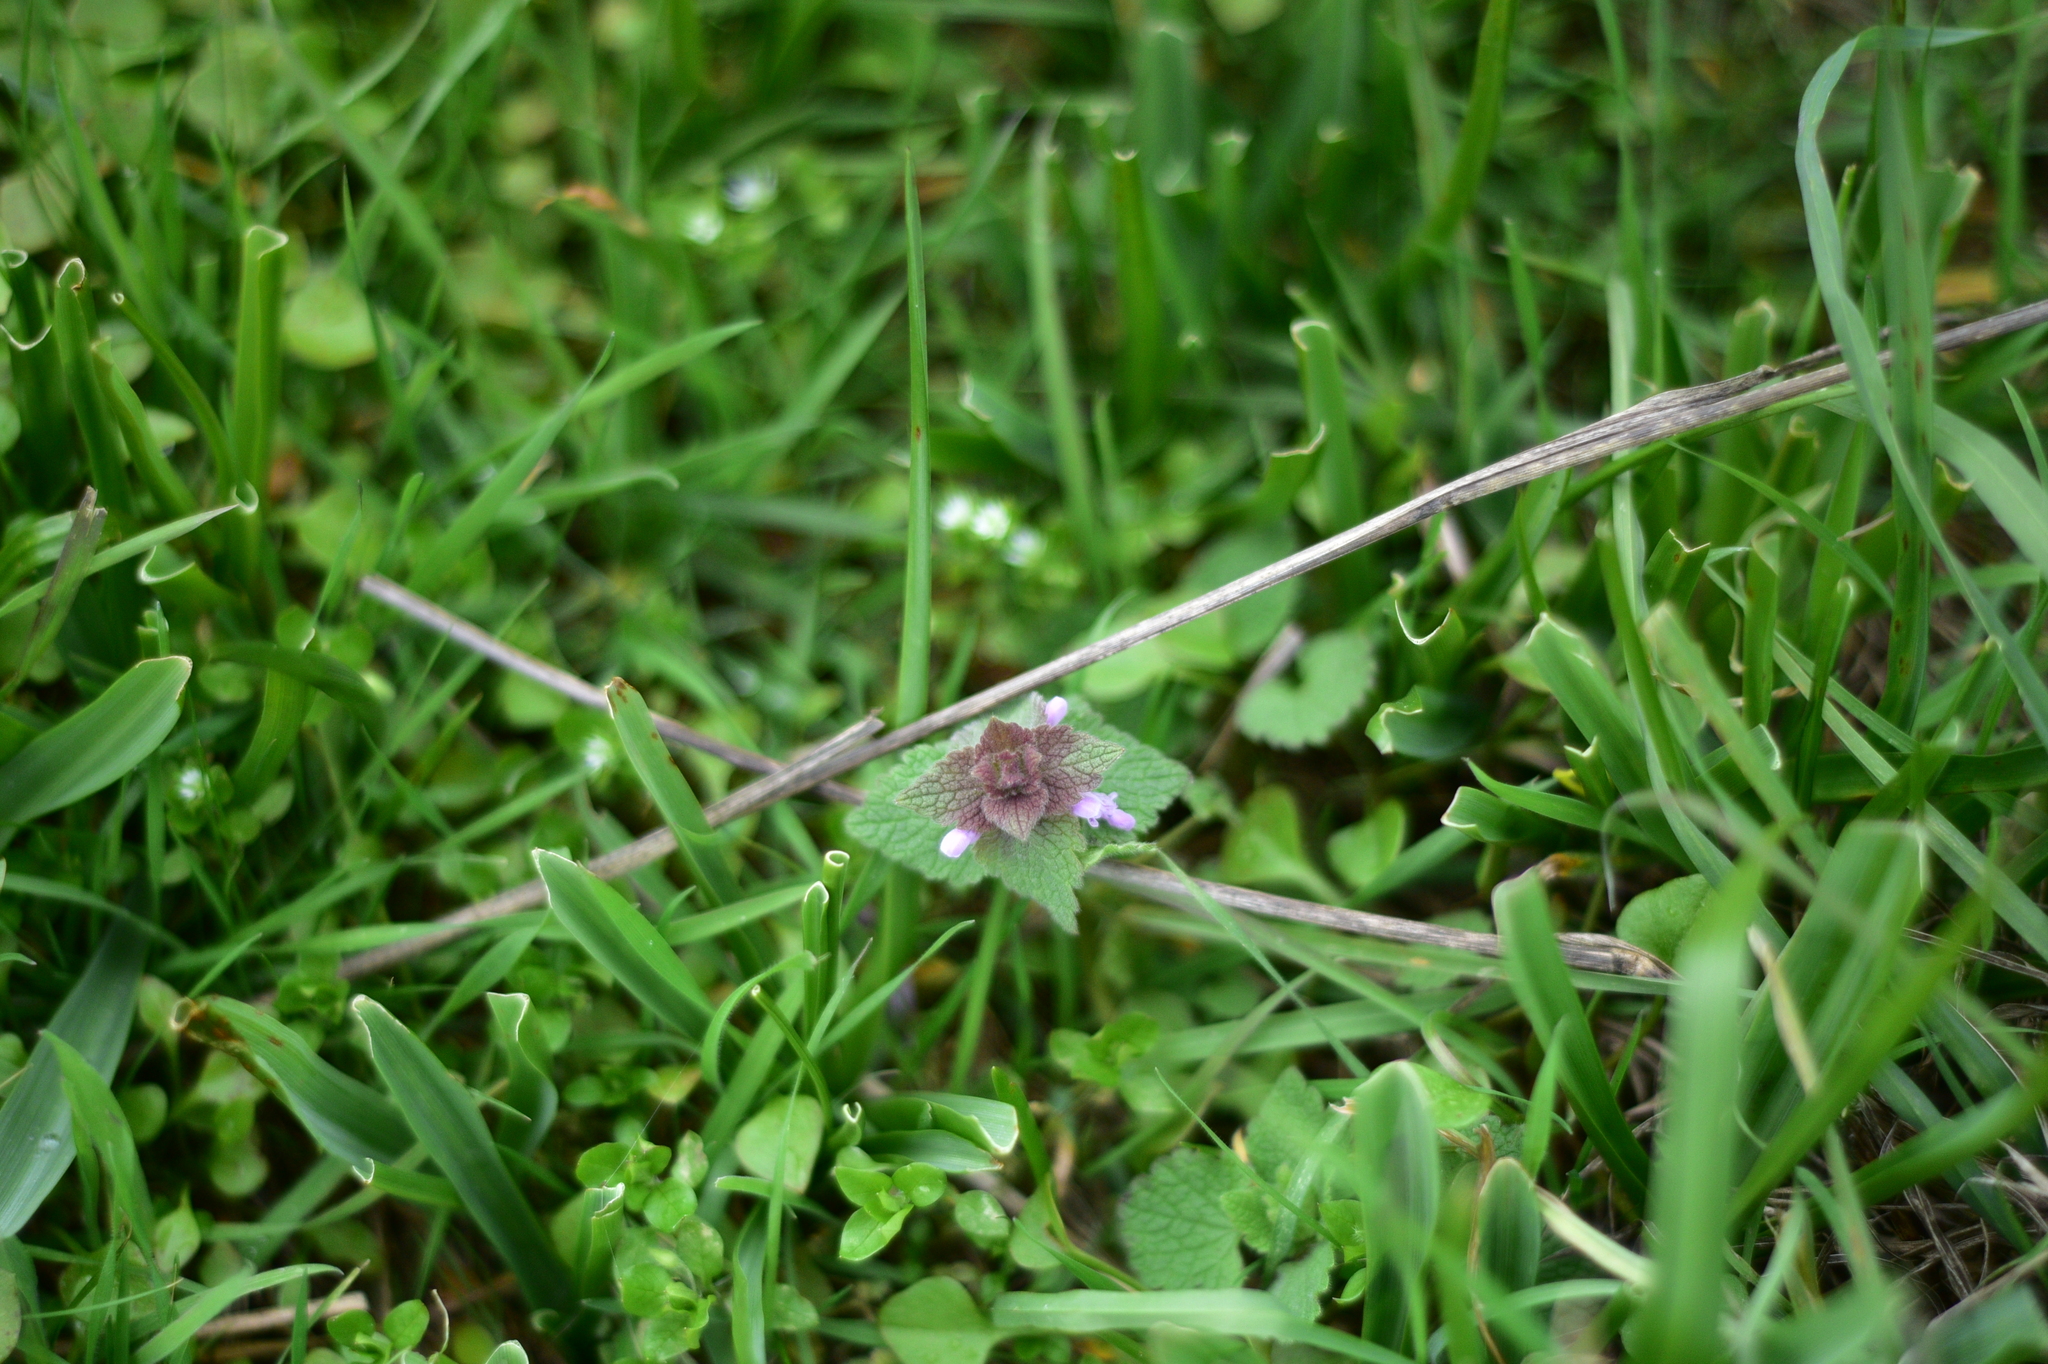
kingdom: Plantae
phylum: Tracheophyta
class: Magnoliopsida
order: Lamiales
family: Lamiaceae
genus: Lamium
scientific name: Lamium purpureum
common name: Red dead-nettle
